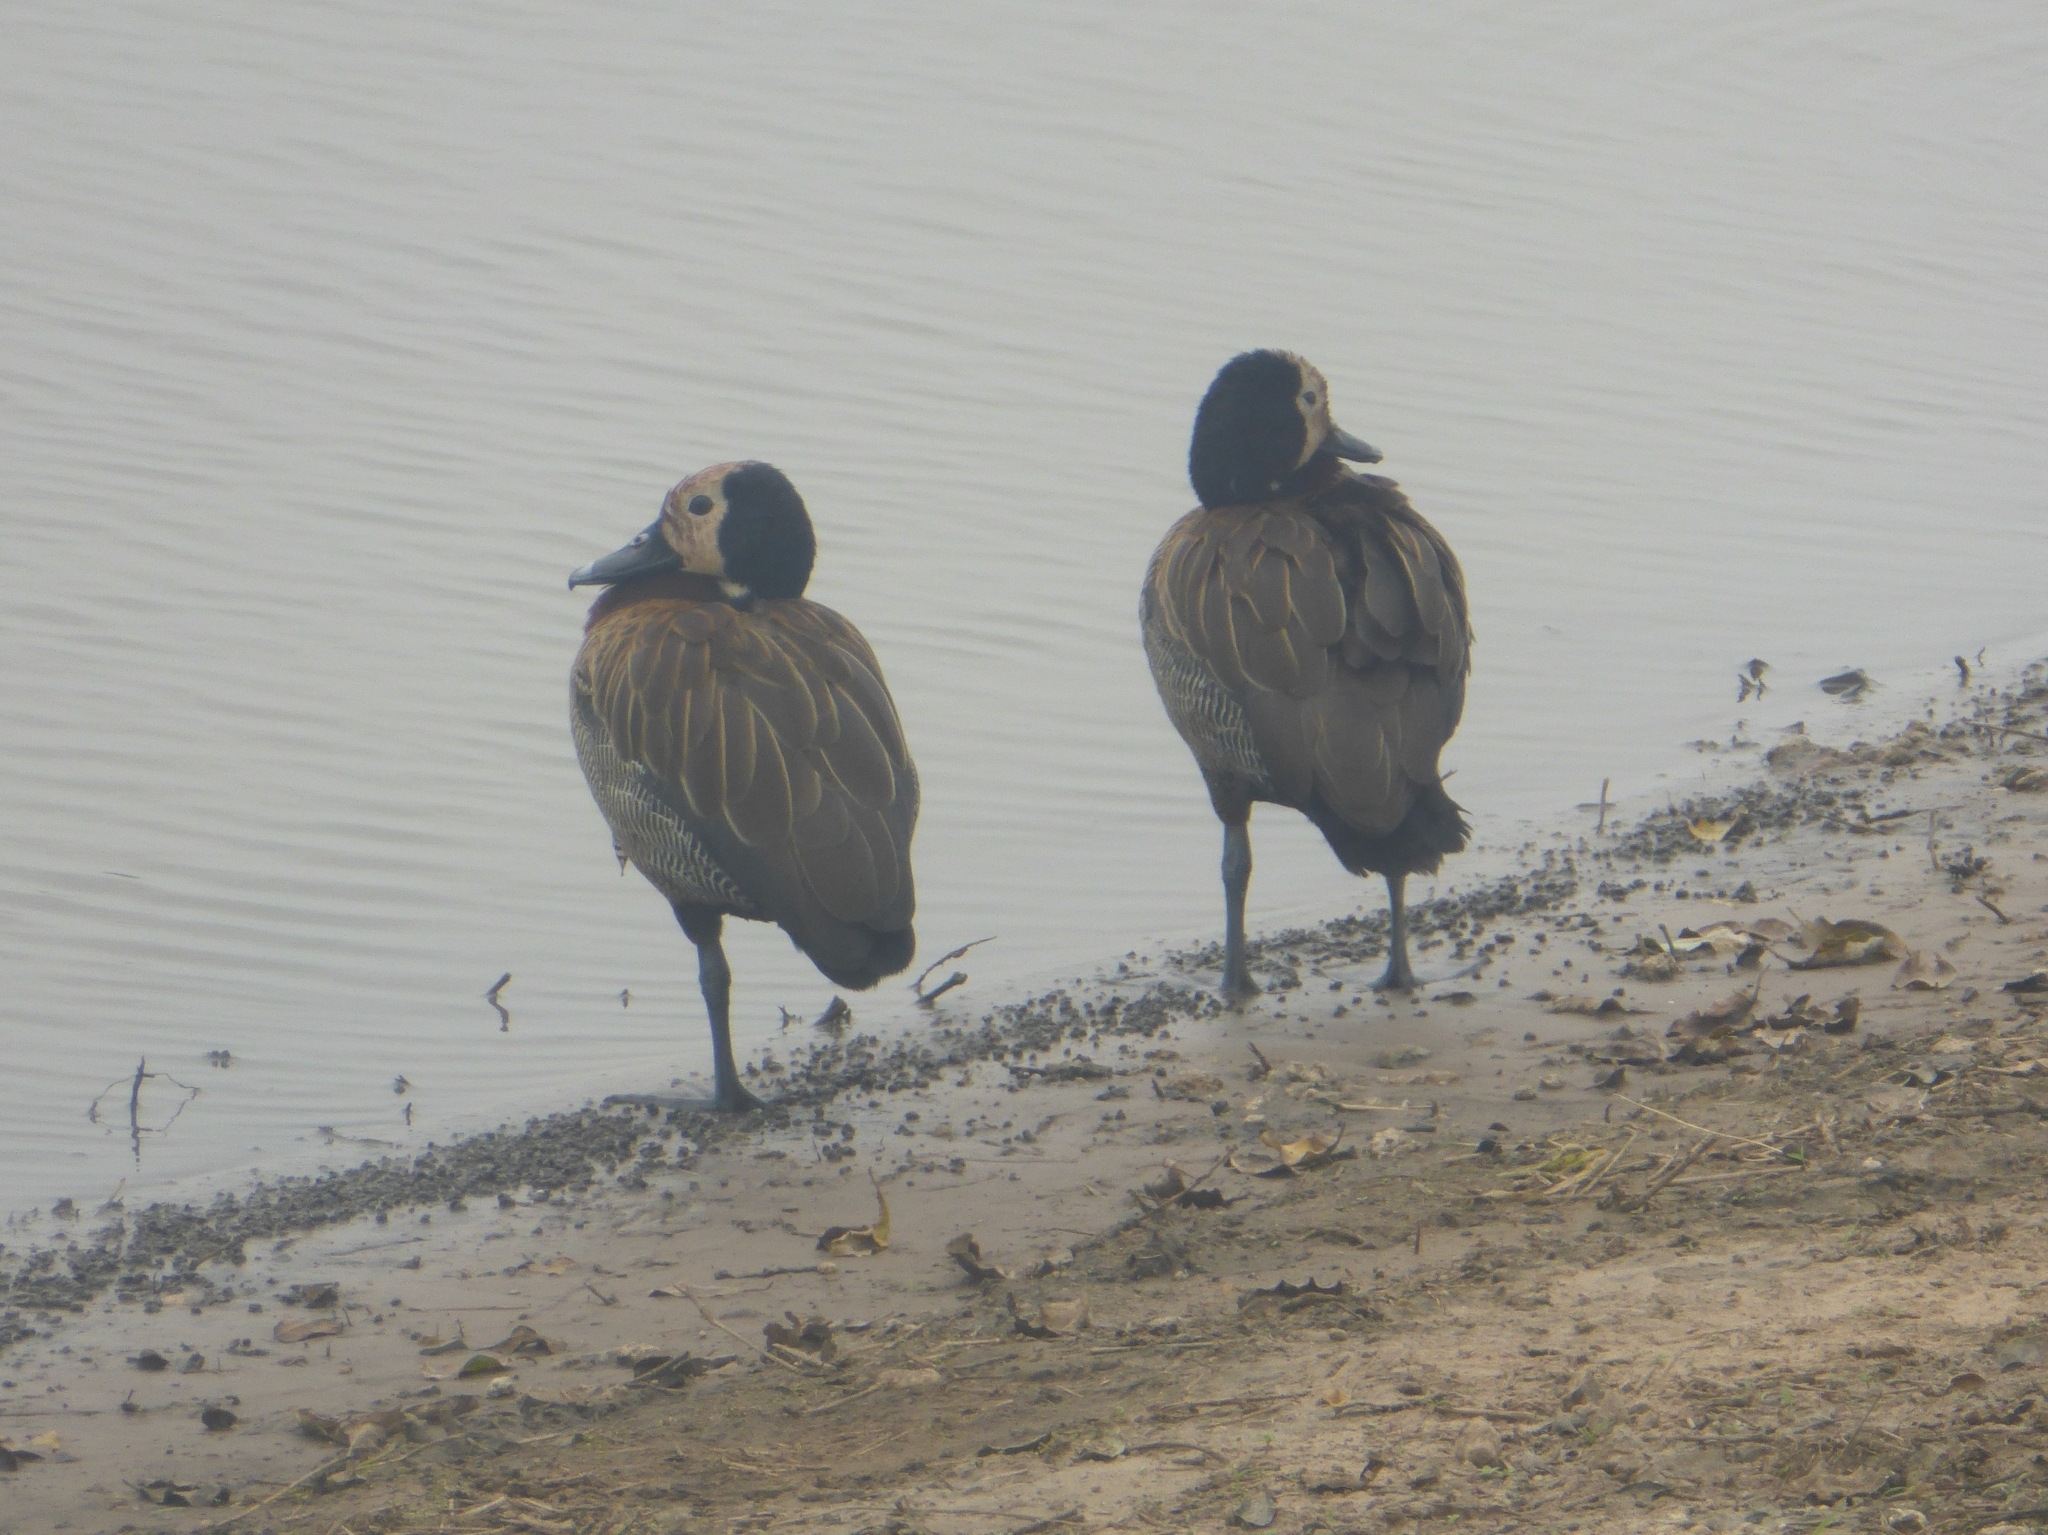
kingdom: Animalia
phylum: Chordata
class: Aves
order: Anseriformes
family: Anatidae
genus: Dendrocygna
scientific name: Dendrocygna viduata
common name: White-faced whistling duck
